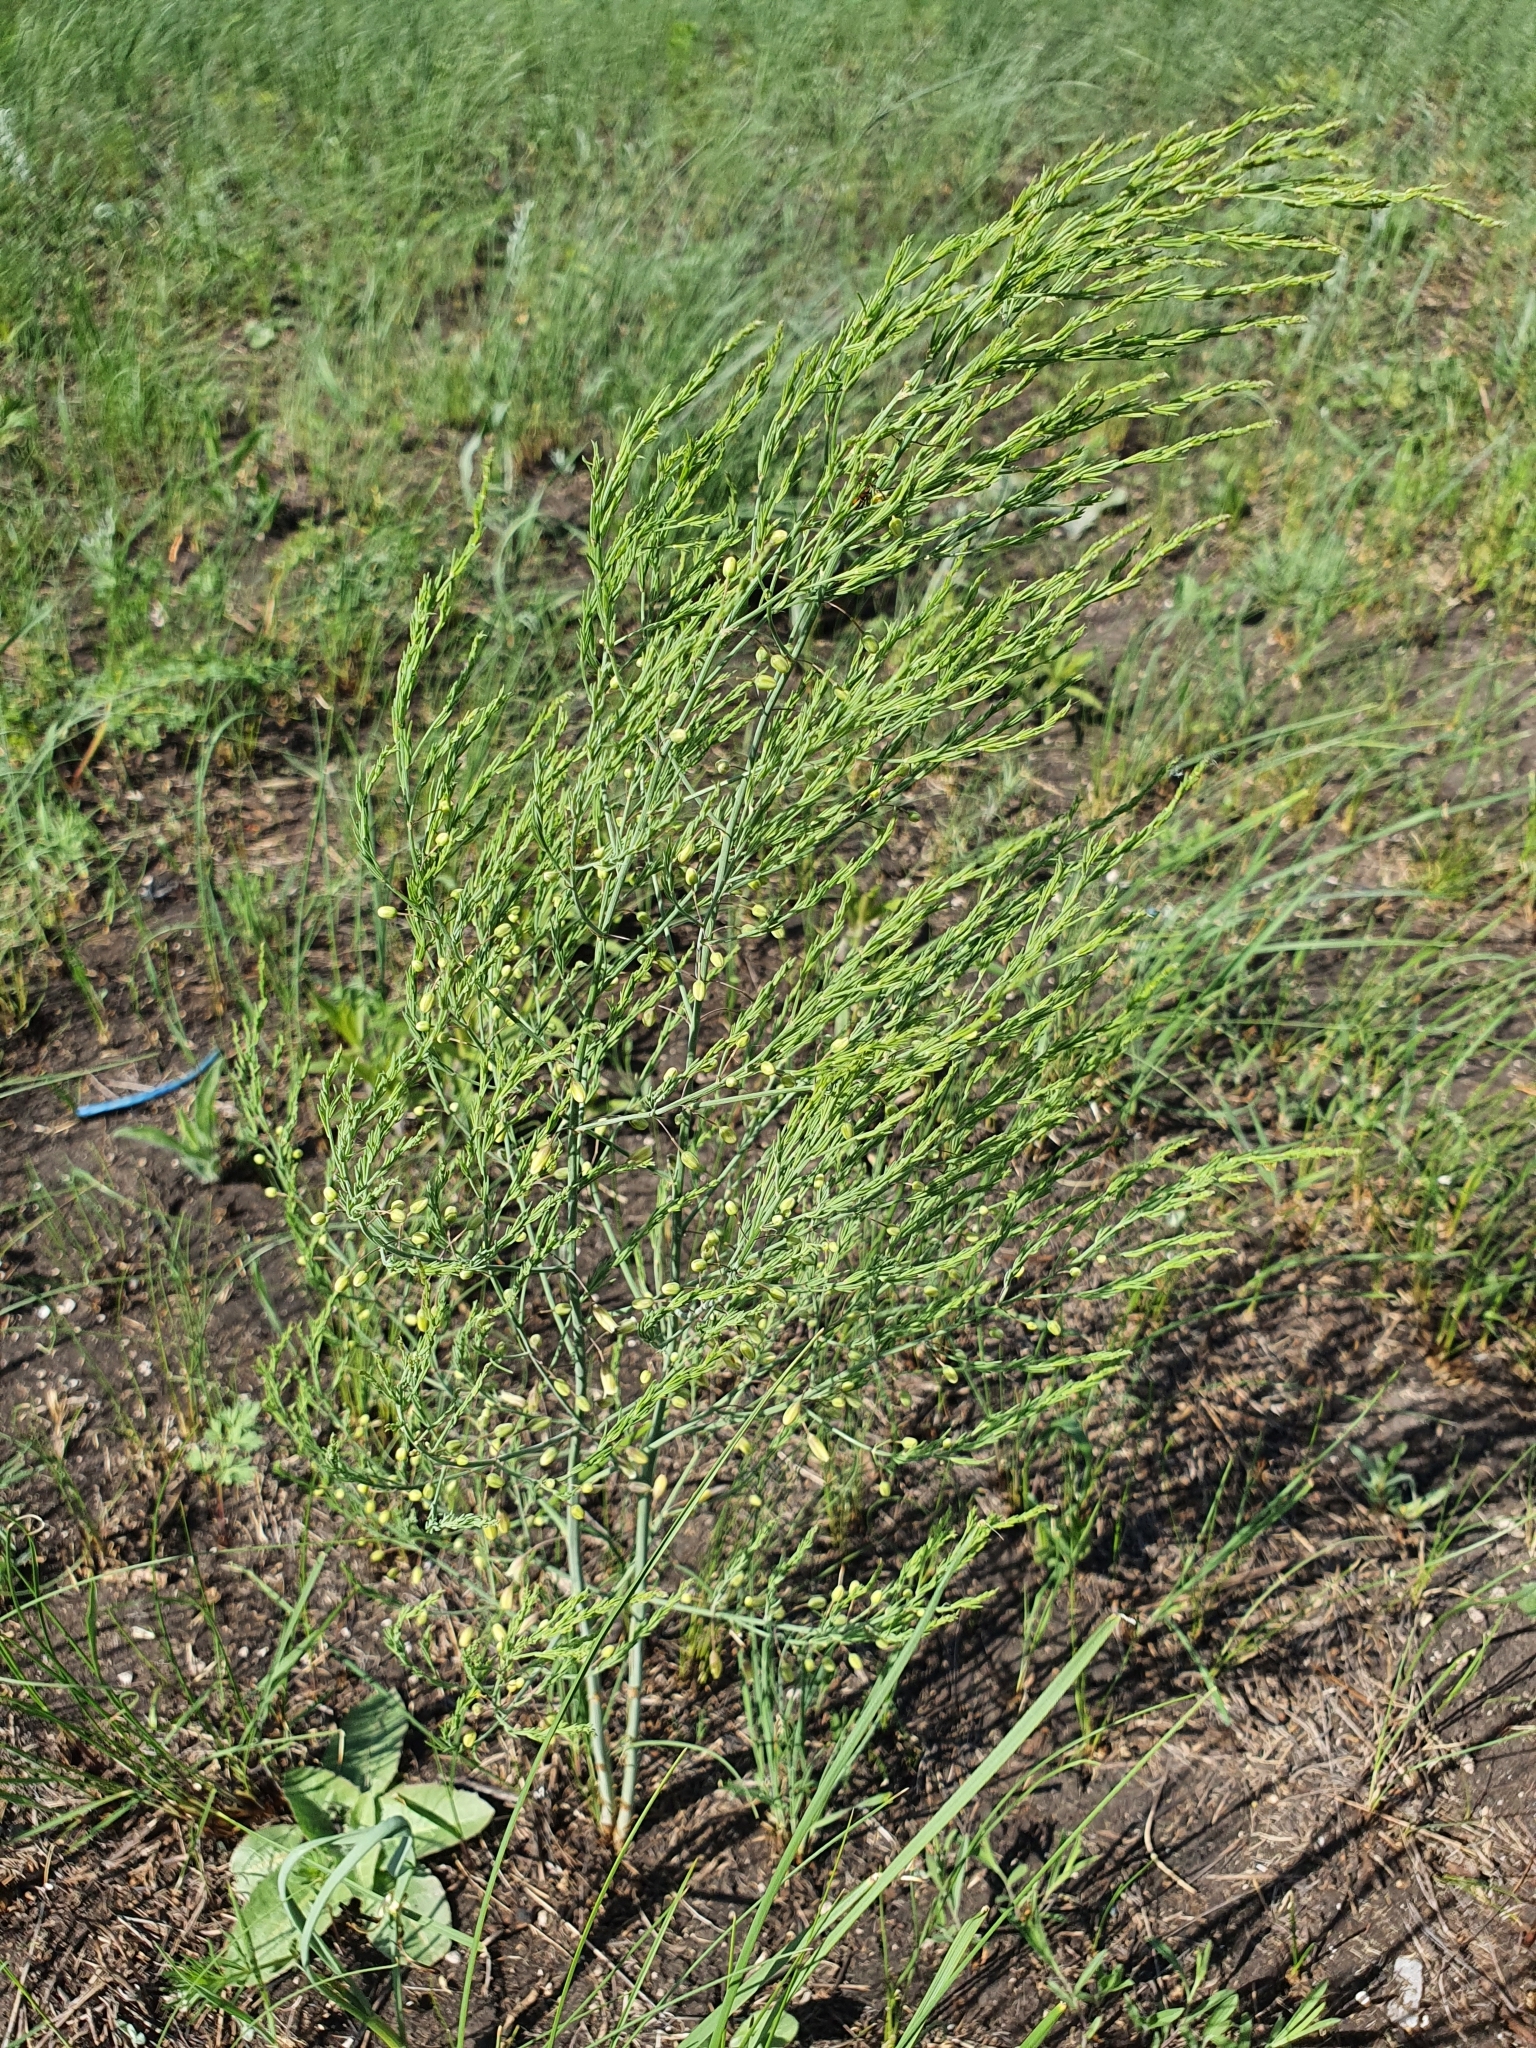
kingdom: Plantae
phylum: Tracheophyta
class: Liliopsida
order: Asparagales
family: Asparagaceae
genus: Asparagus
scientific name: Asparagus officinalis
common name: Garden asparagus
